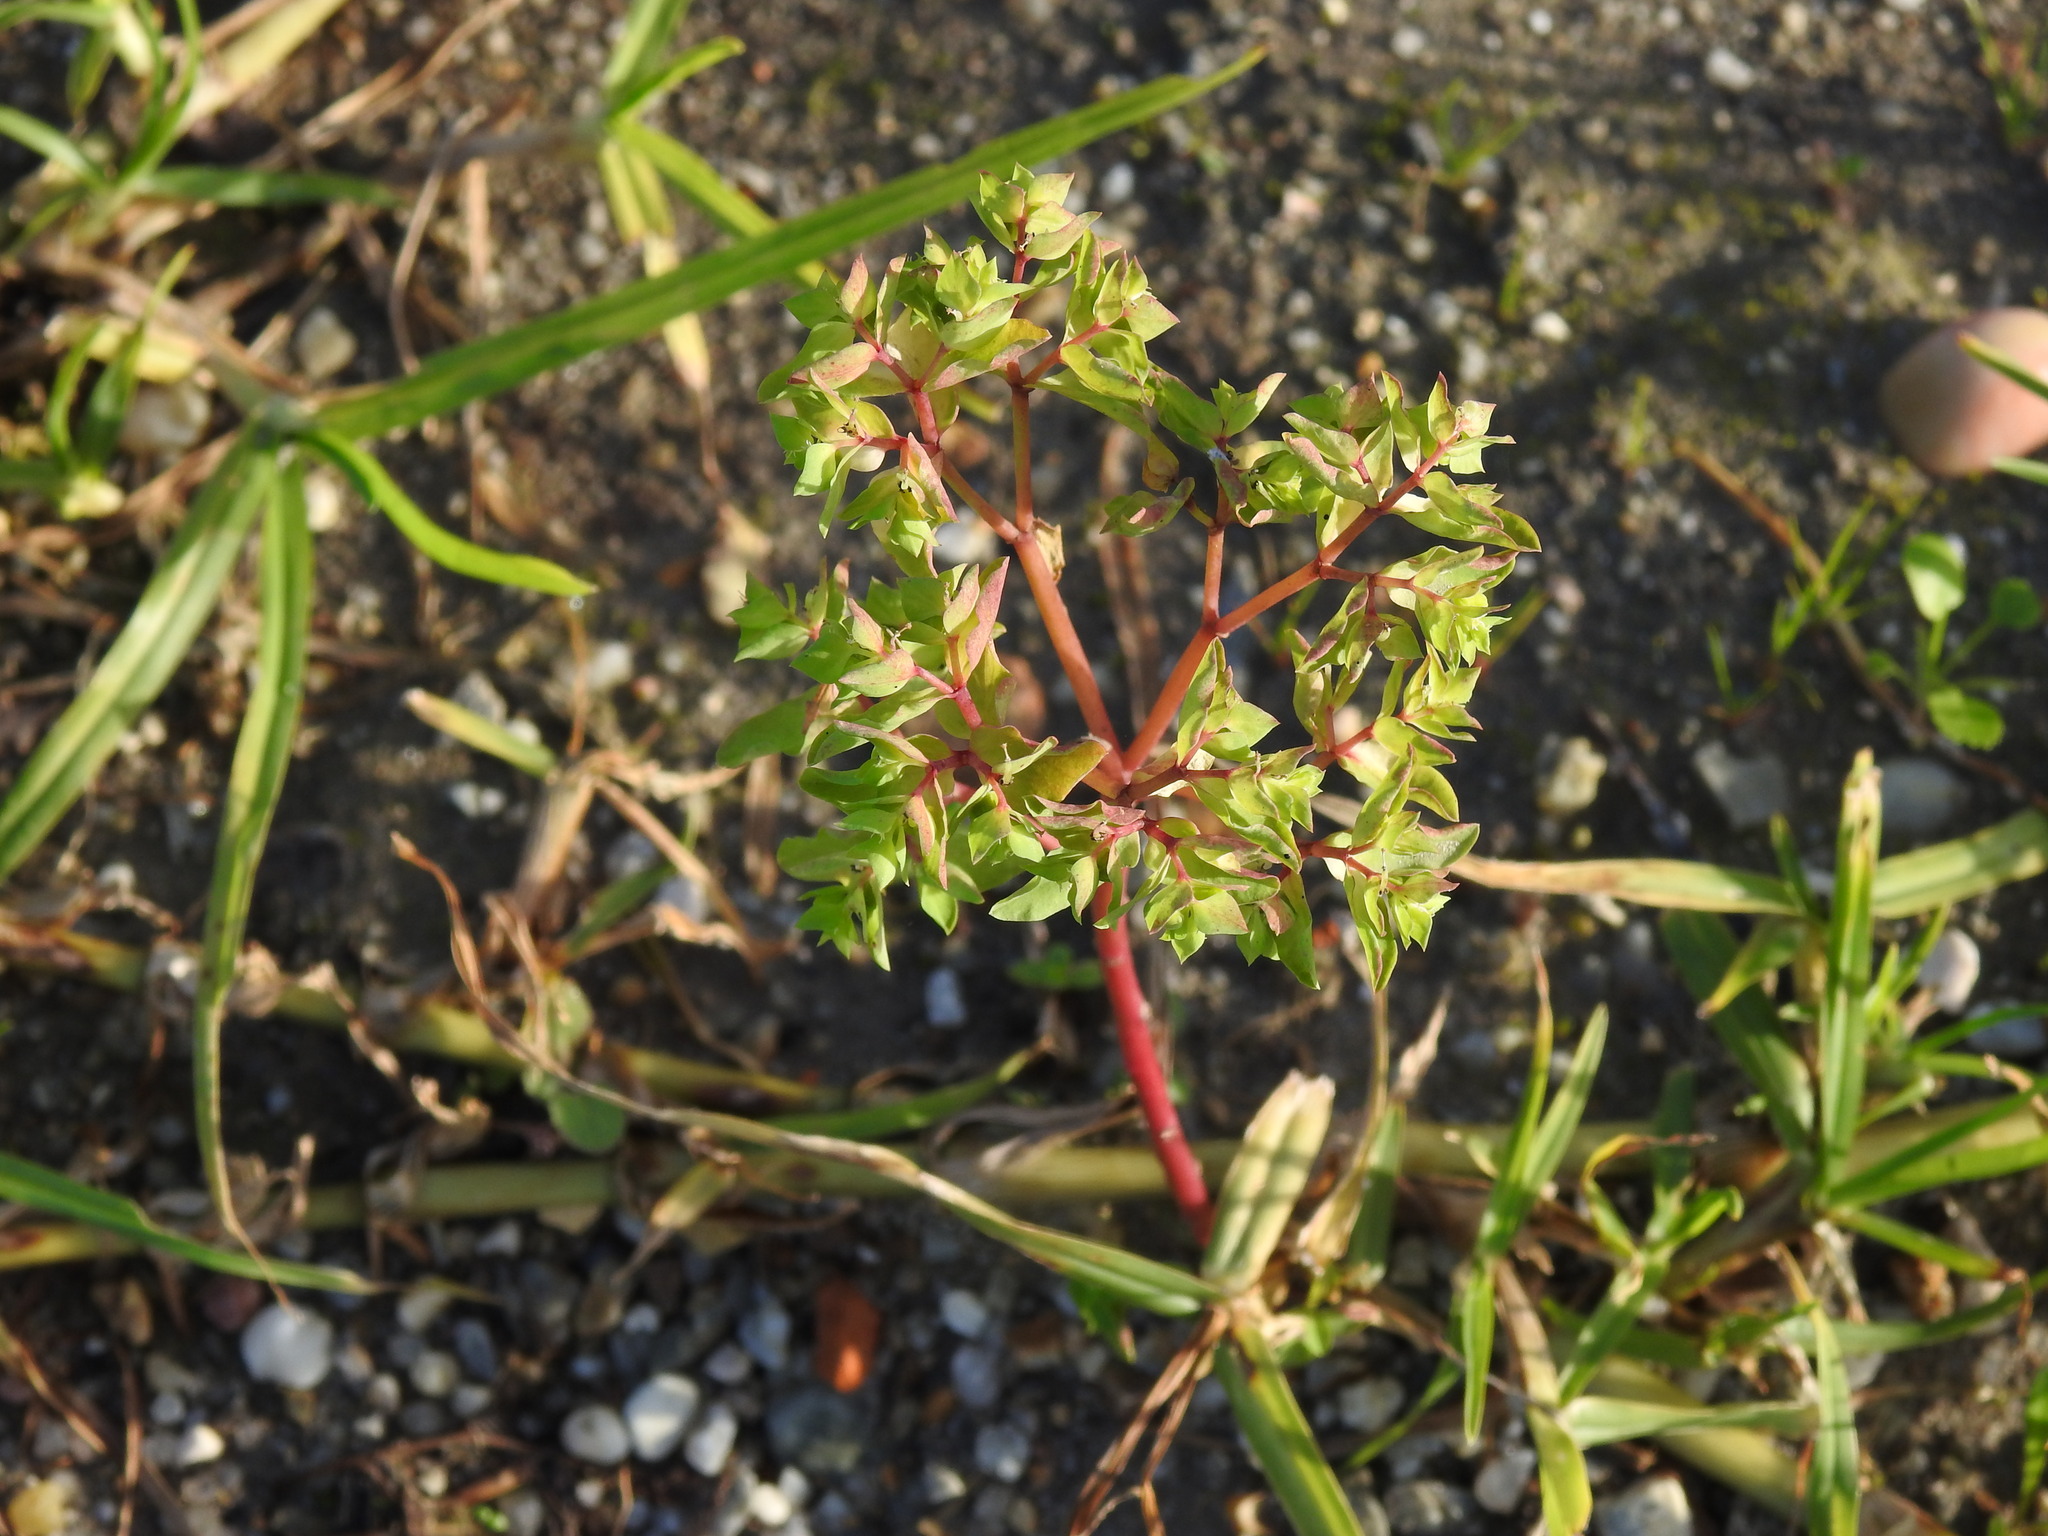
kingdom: Plantae
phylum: Tracheophyta
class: Magnoliopsida
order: Malpighiales
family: Euphorbiaceae
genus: Euphorbia
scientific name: Euphorbia peplus
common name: Petty spurge
